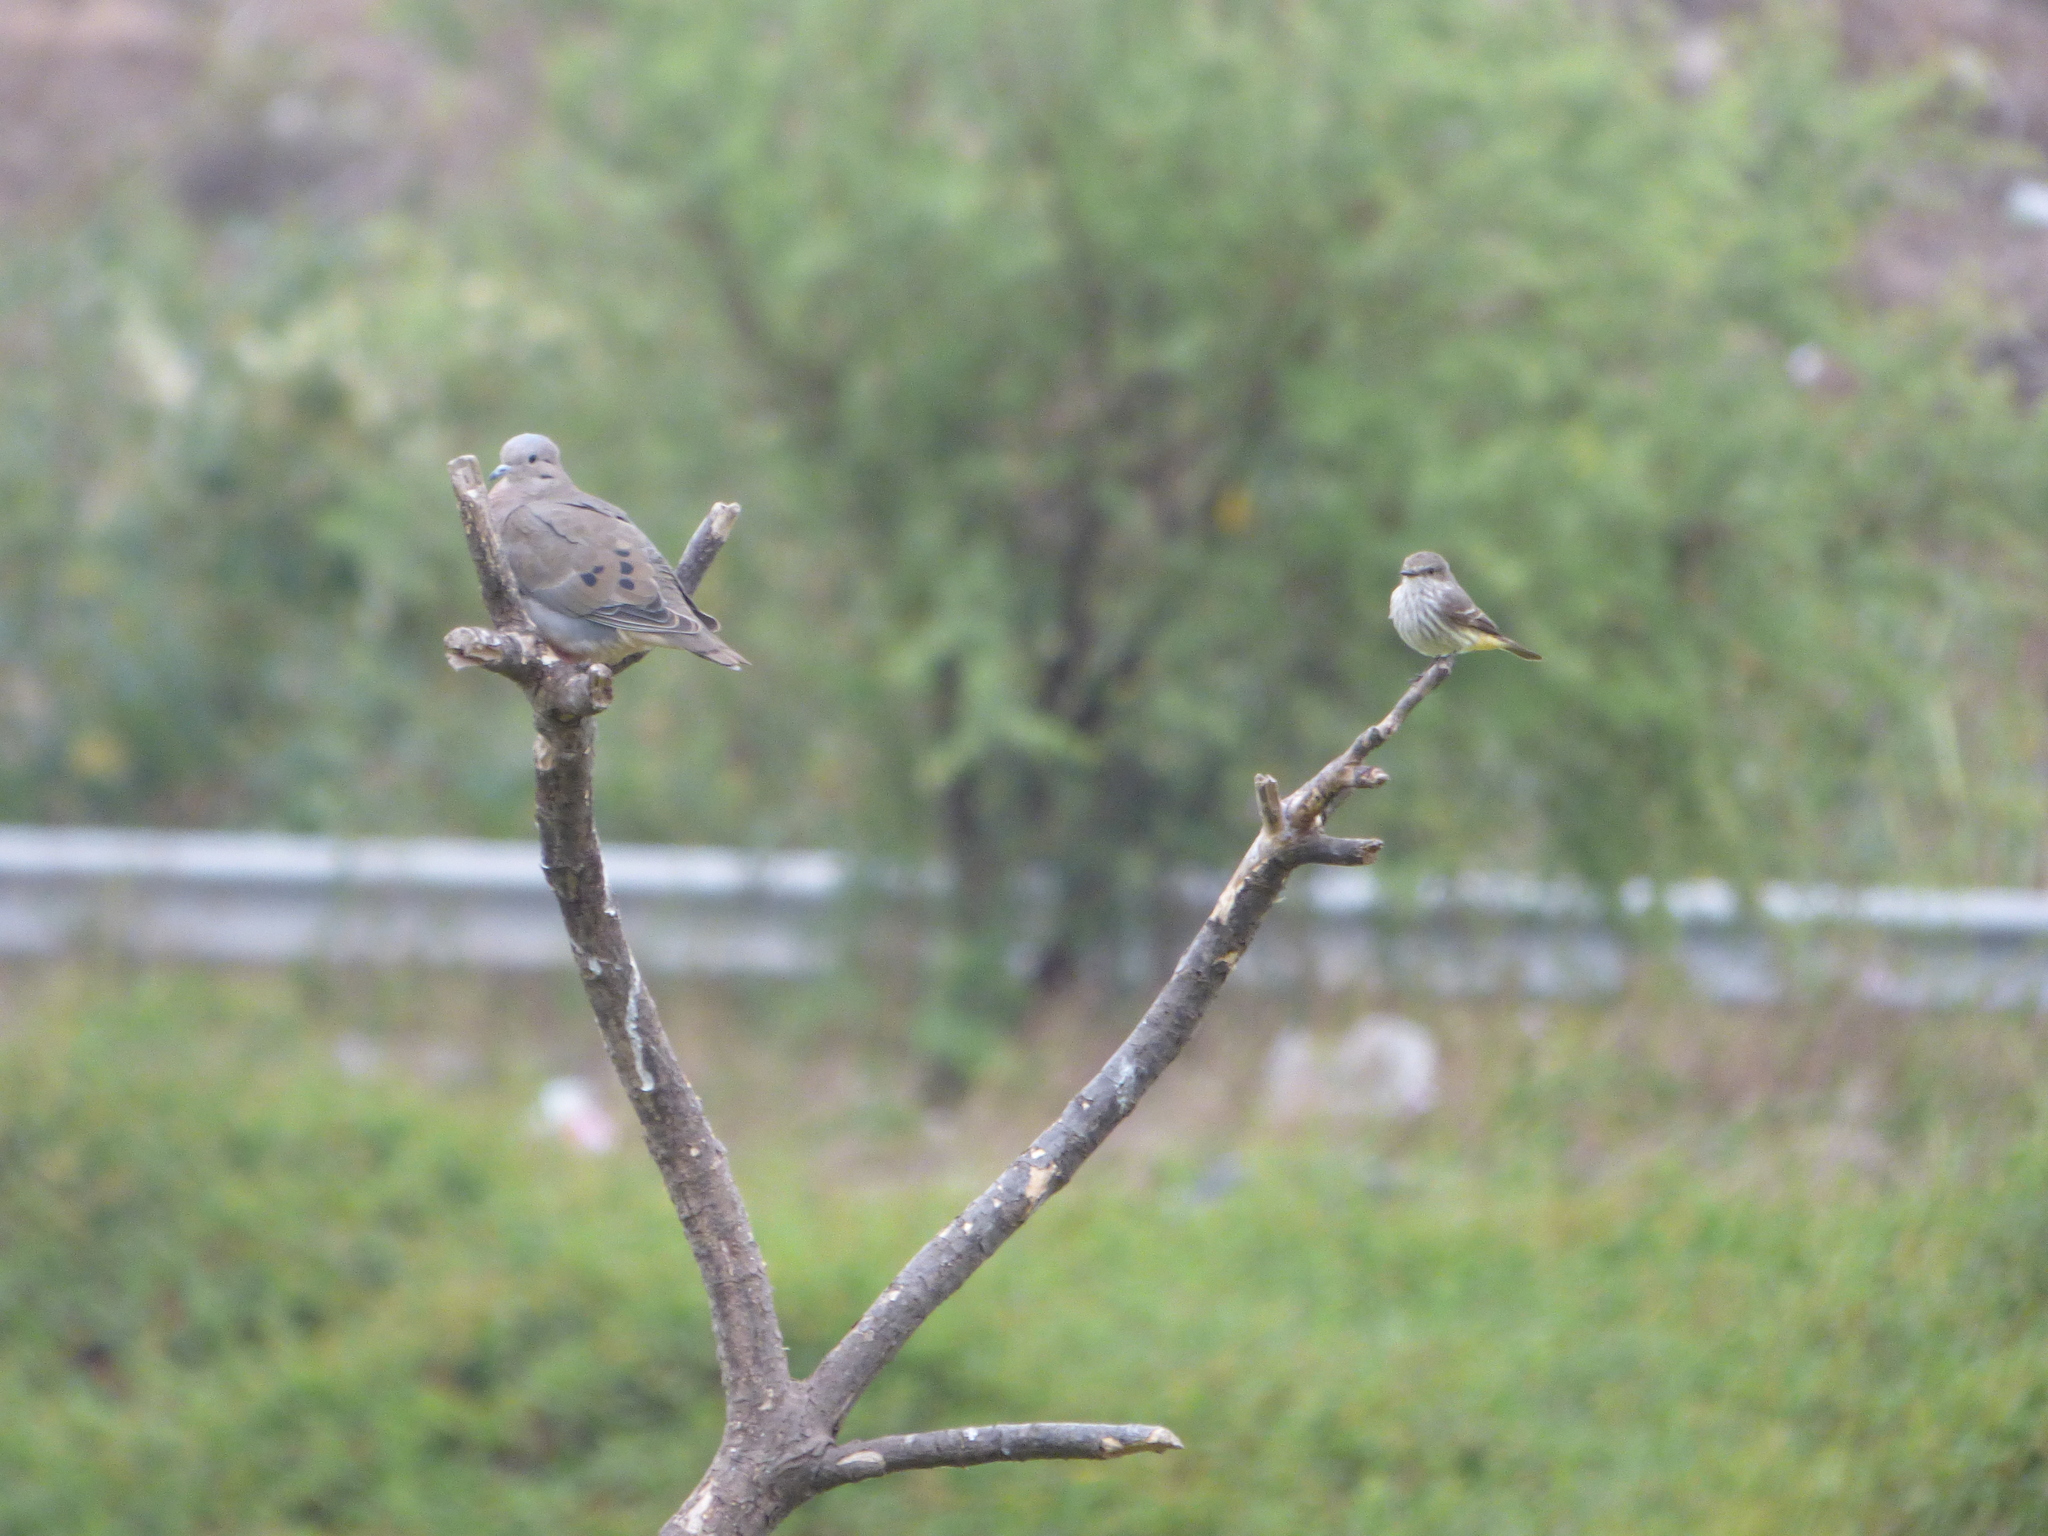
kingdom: Animalia
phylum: Chordata
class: Aves
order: Columbiformes
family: Columbidae
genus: Zenaida
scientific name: Zenaida auriculata
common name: Eared dove
